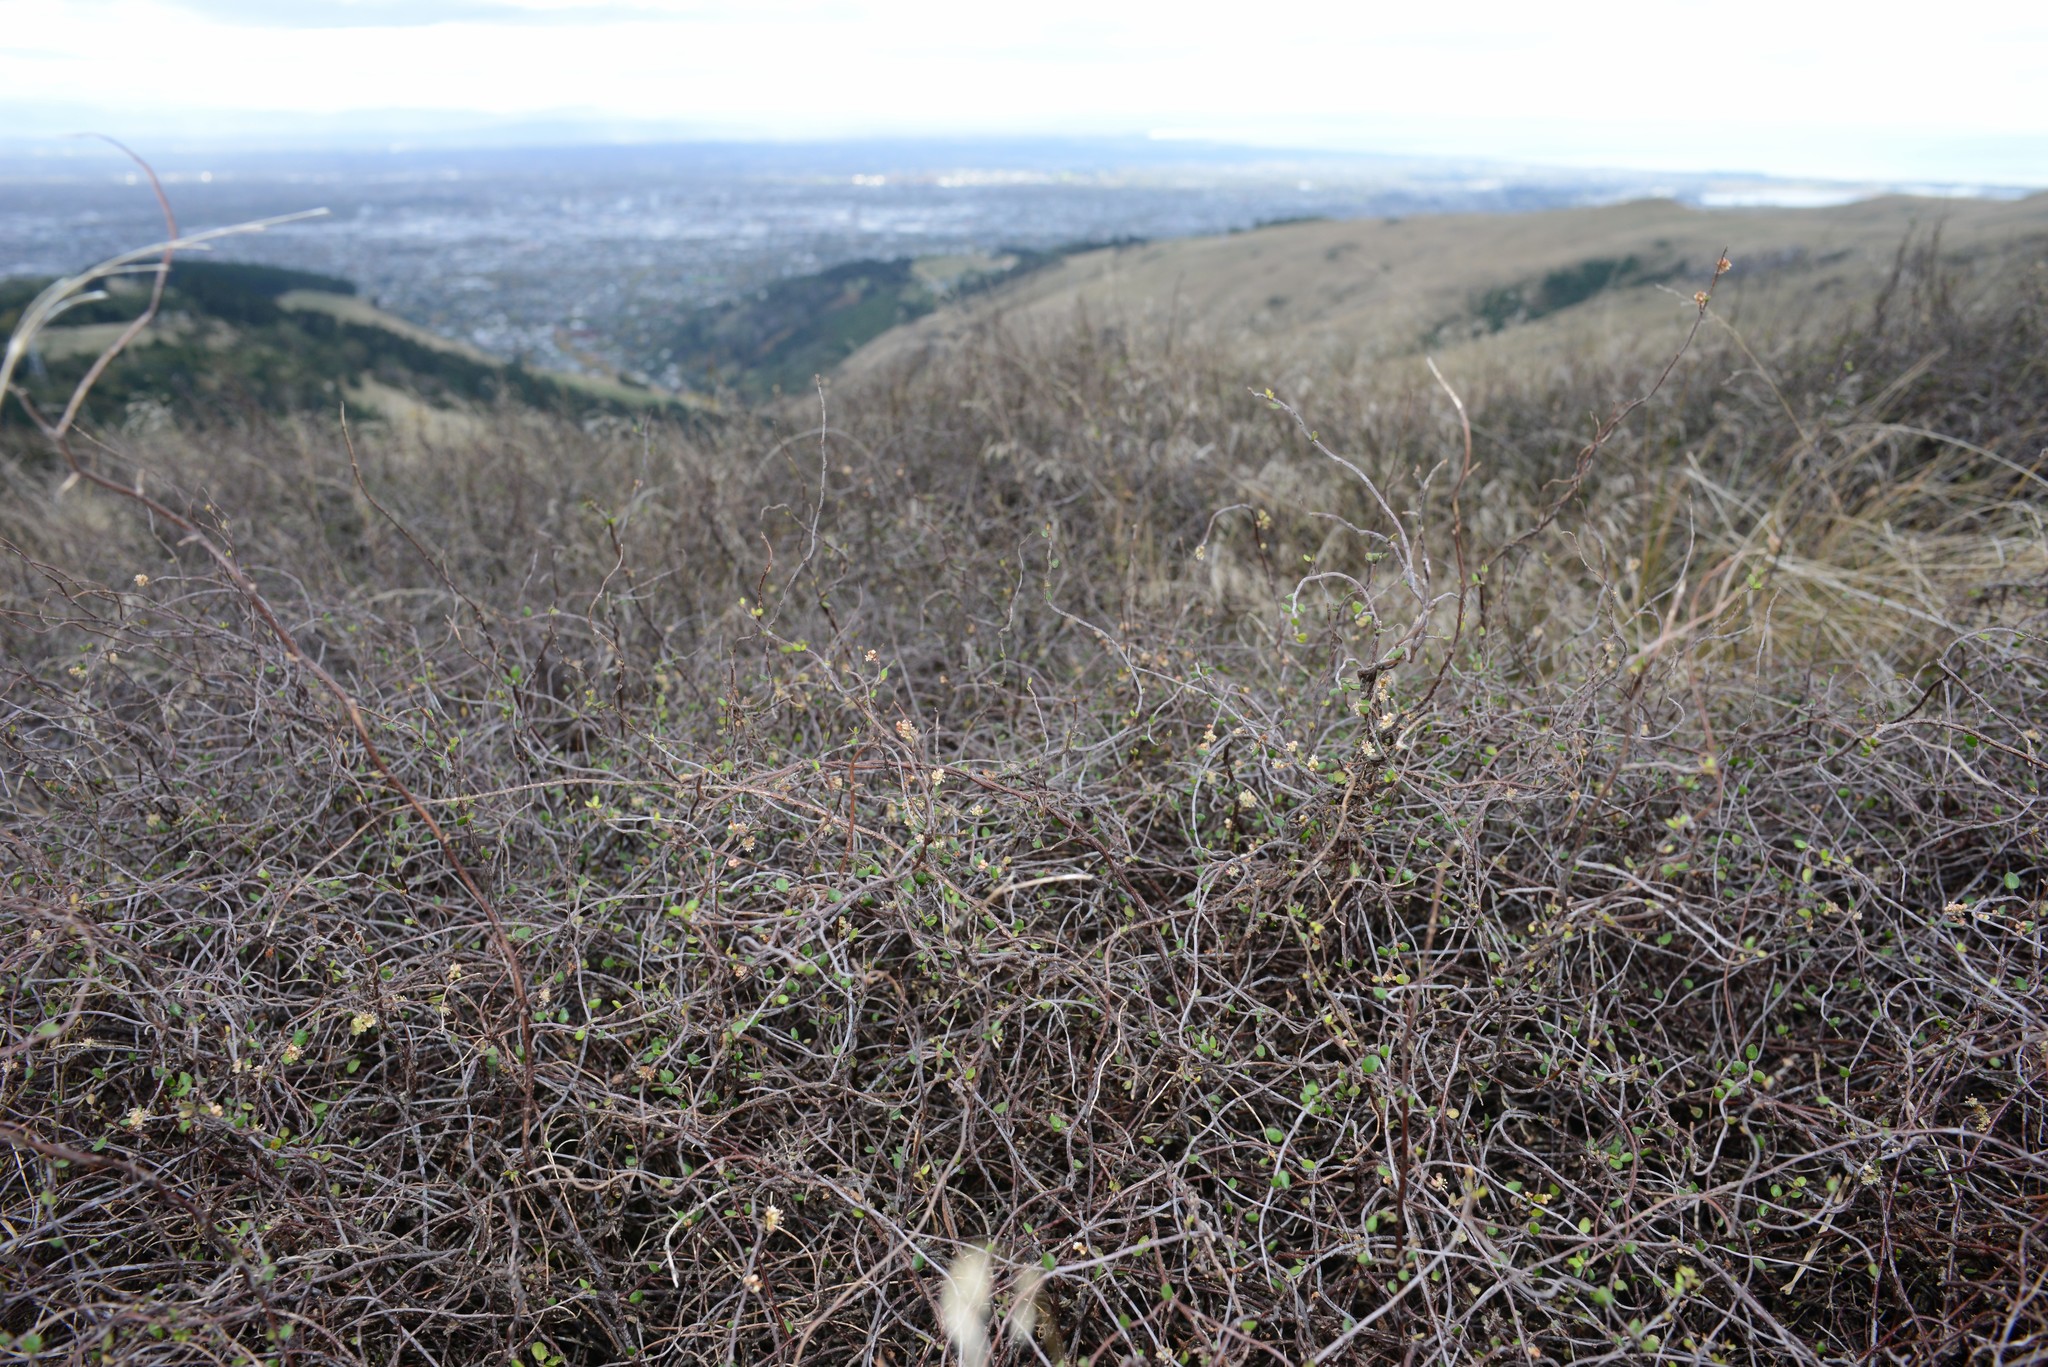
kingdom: Plantae
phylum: Tracheophyta
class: Magnoliopsida
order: Caryophyllales
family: Polygonaceae
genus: Muehlenbeckia
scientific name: Muehlenbeckia complexa
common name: Wireplant
